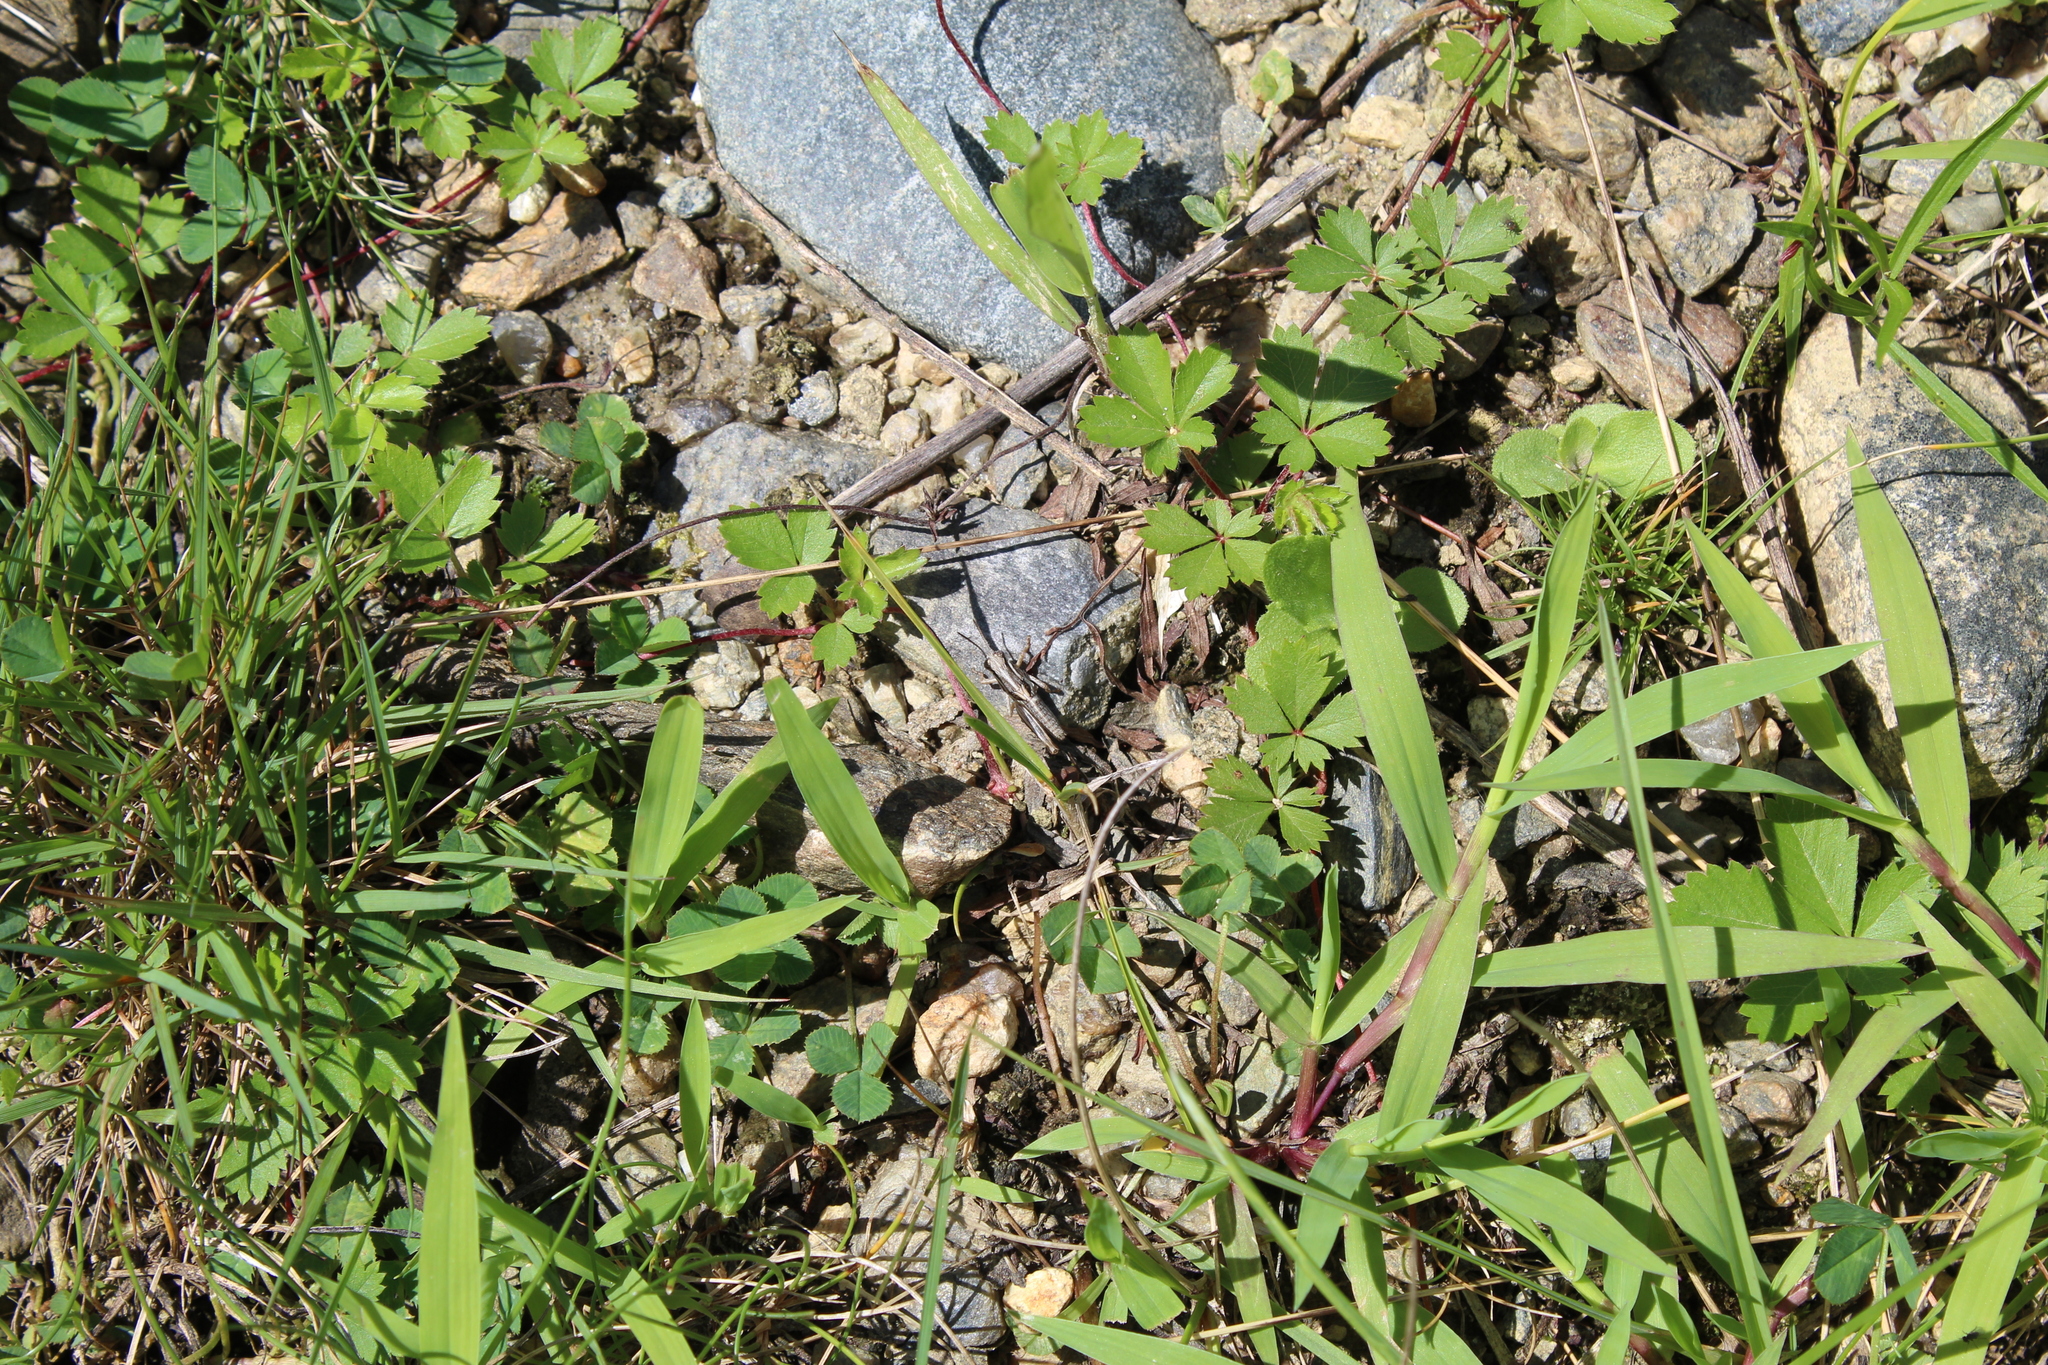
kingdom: Animalia
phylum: Arthropoda
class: Insecta
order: Orthoptera
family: Acrididae
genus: Melanoplus
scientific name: Melanoplus
